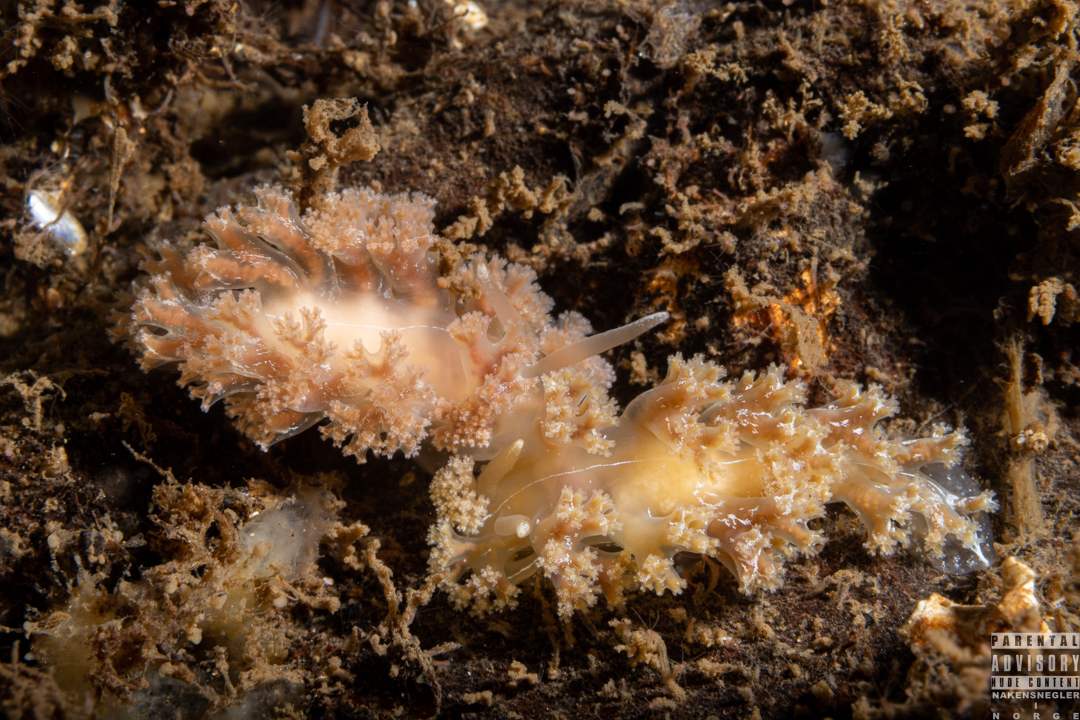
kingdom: Animalia
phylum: Mollusca
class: Gastropoda
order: Nudibranchia
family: Heroidae
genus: Hero
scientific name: Hero formosa
